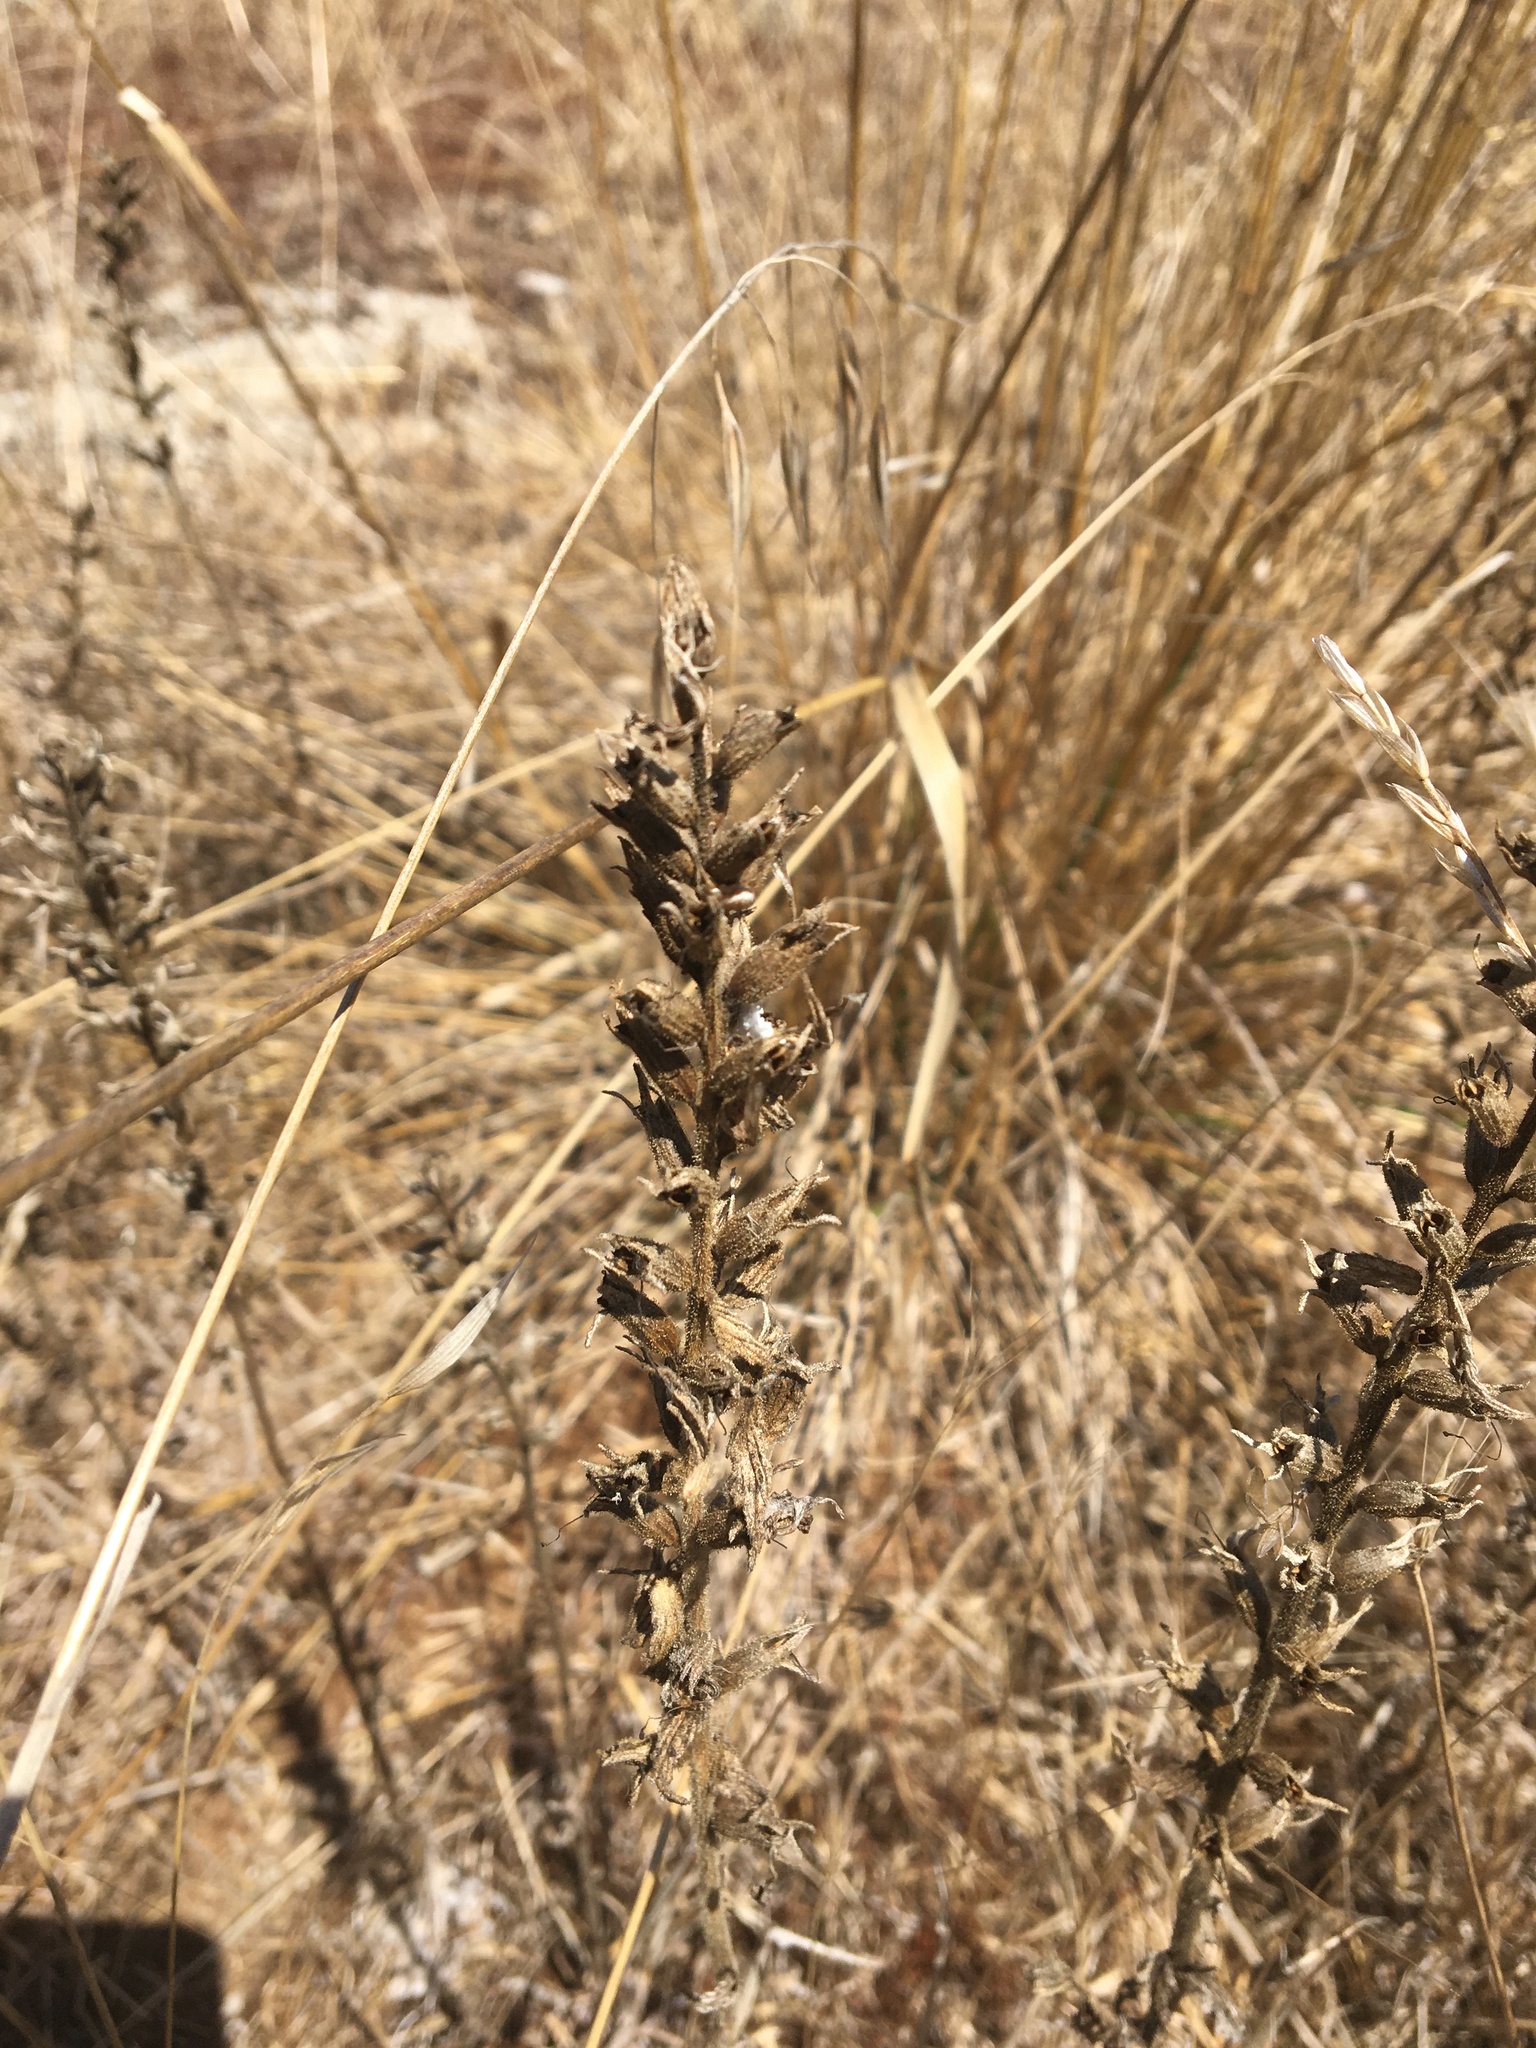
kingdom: Plantae
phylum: Tracheophyta
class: Magnoliopsida
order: Lamiales
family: Orobanchaceae
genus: Bellardia
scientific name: Bellardia viscosa
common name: Sticky parentucellia
